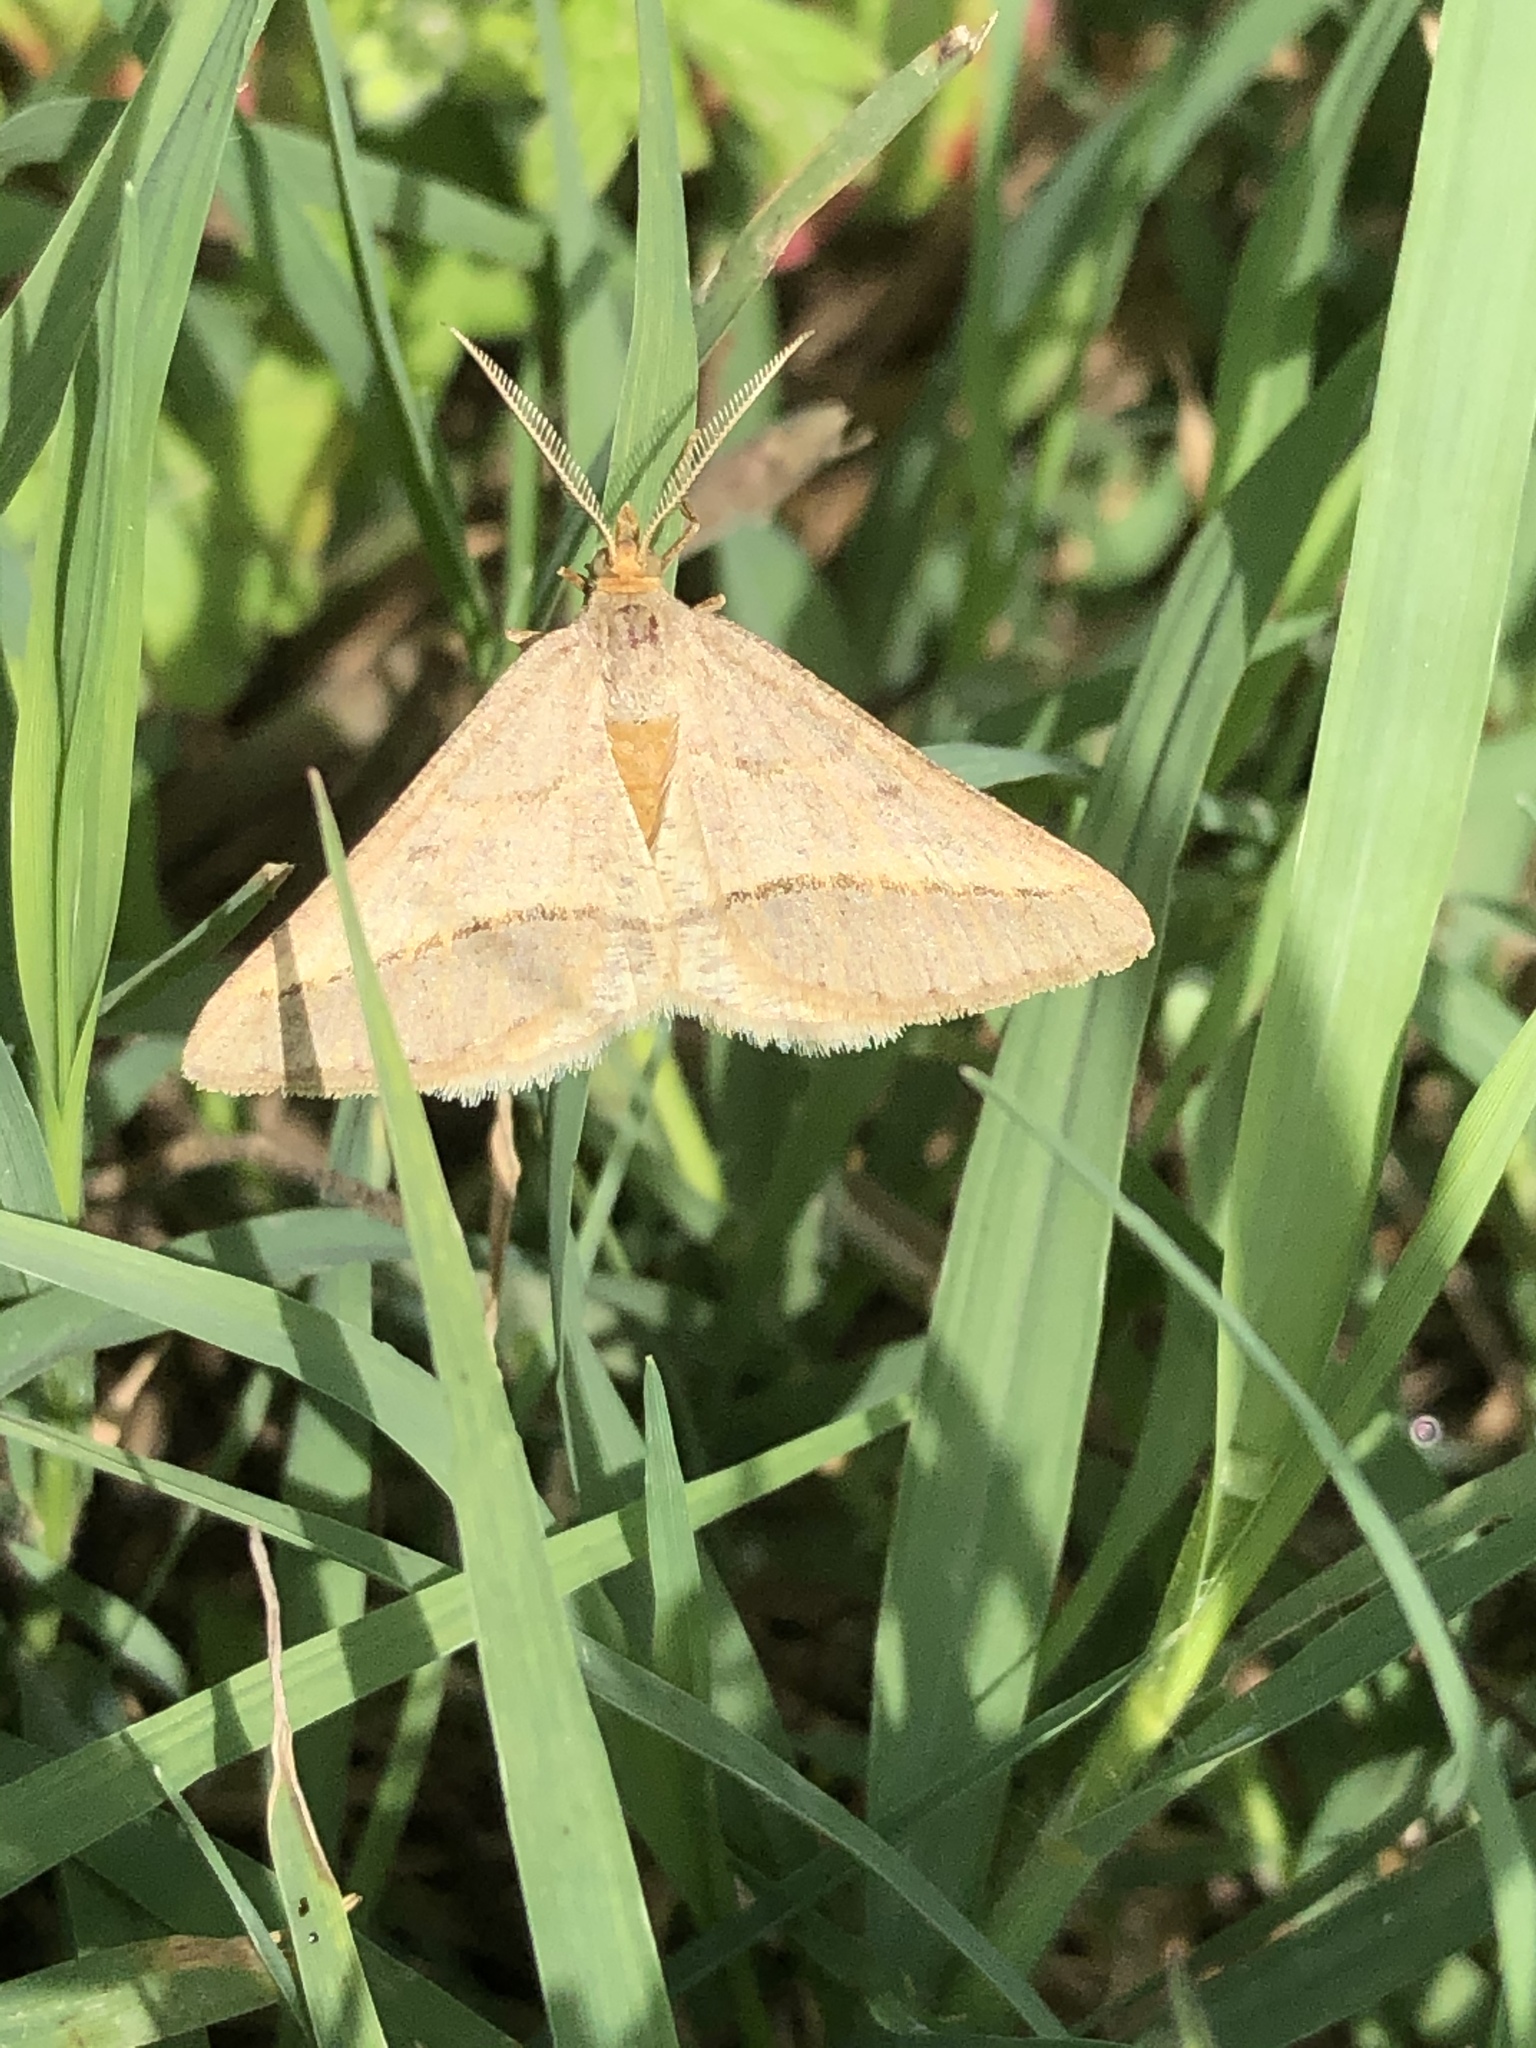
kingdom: Animalia
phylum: Arthropoda
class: Insecta
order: Lepidoptera
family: Geometridae
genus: Tephrina
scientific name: Tephrina arenacearia
